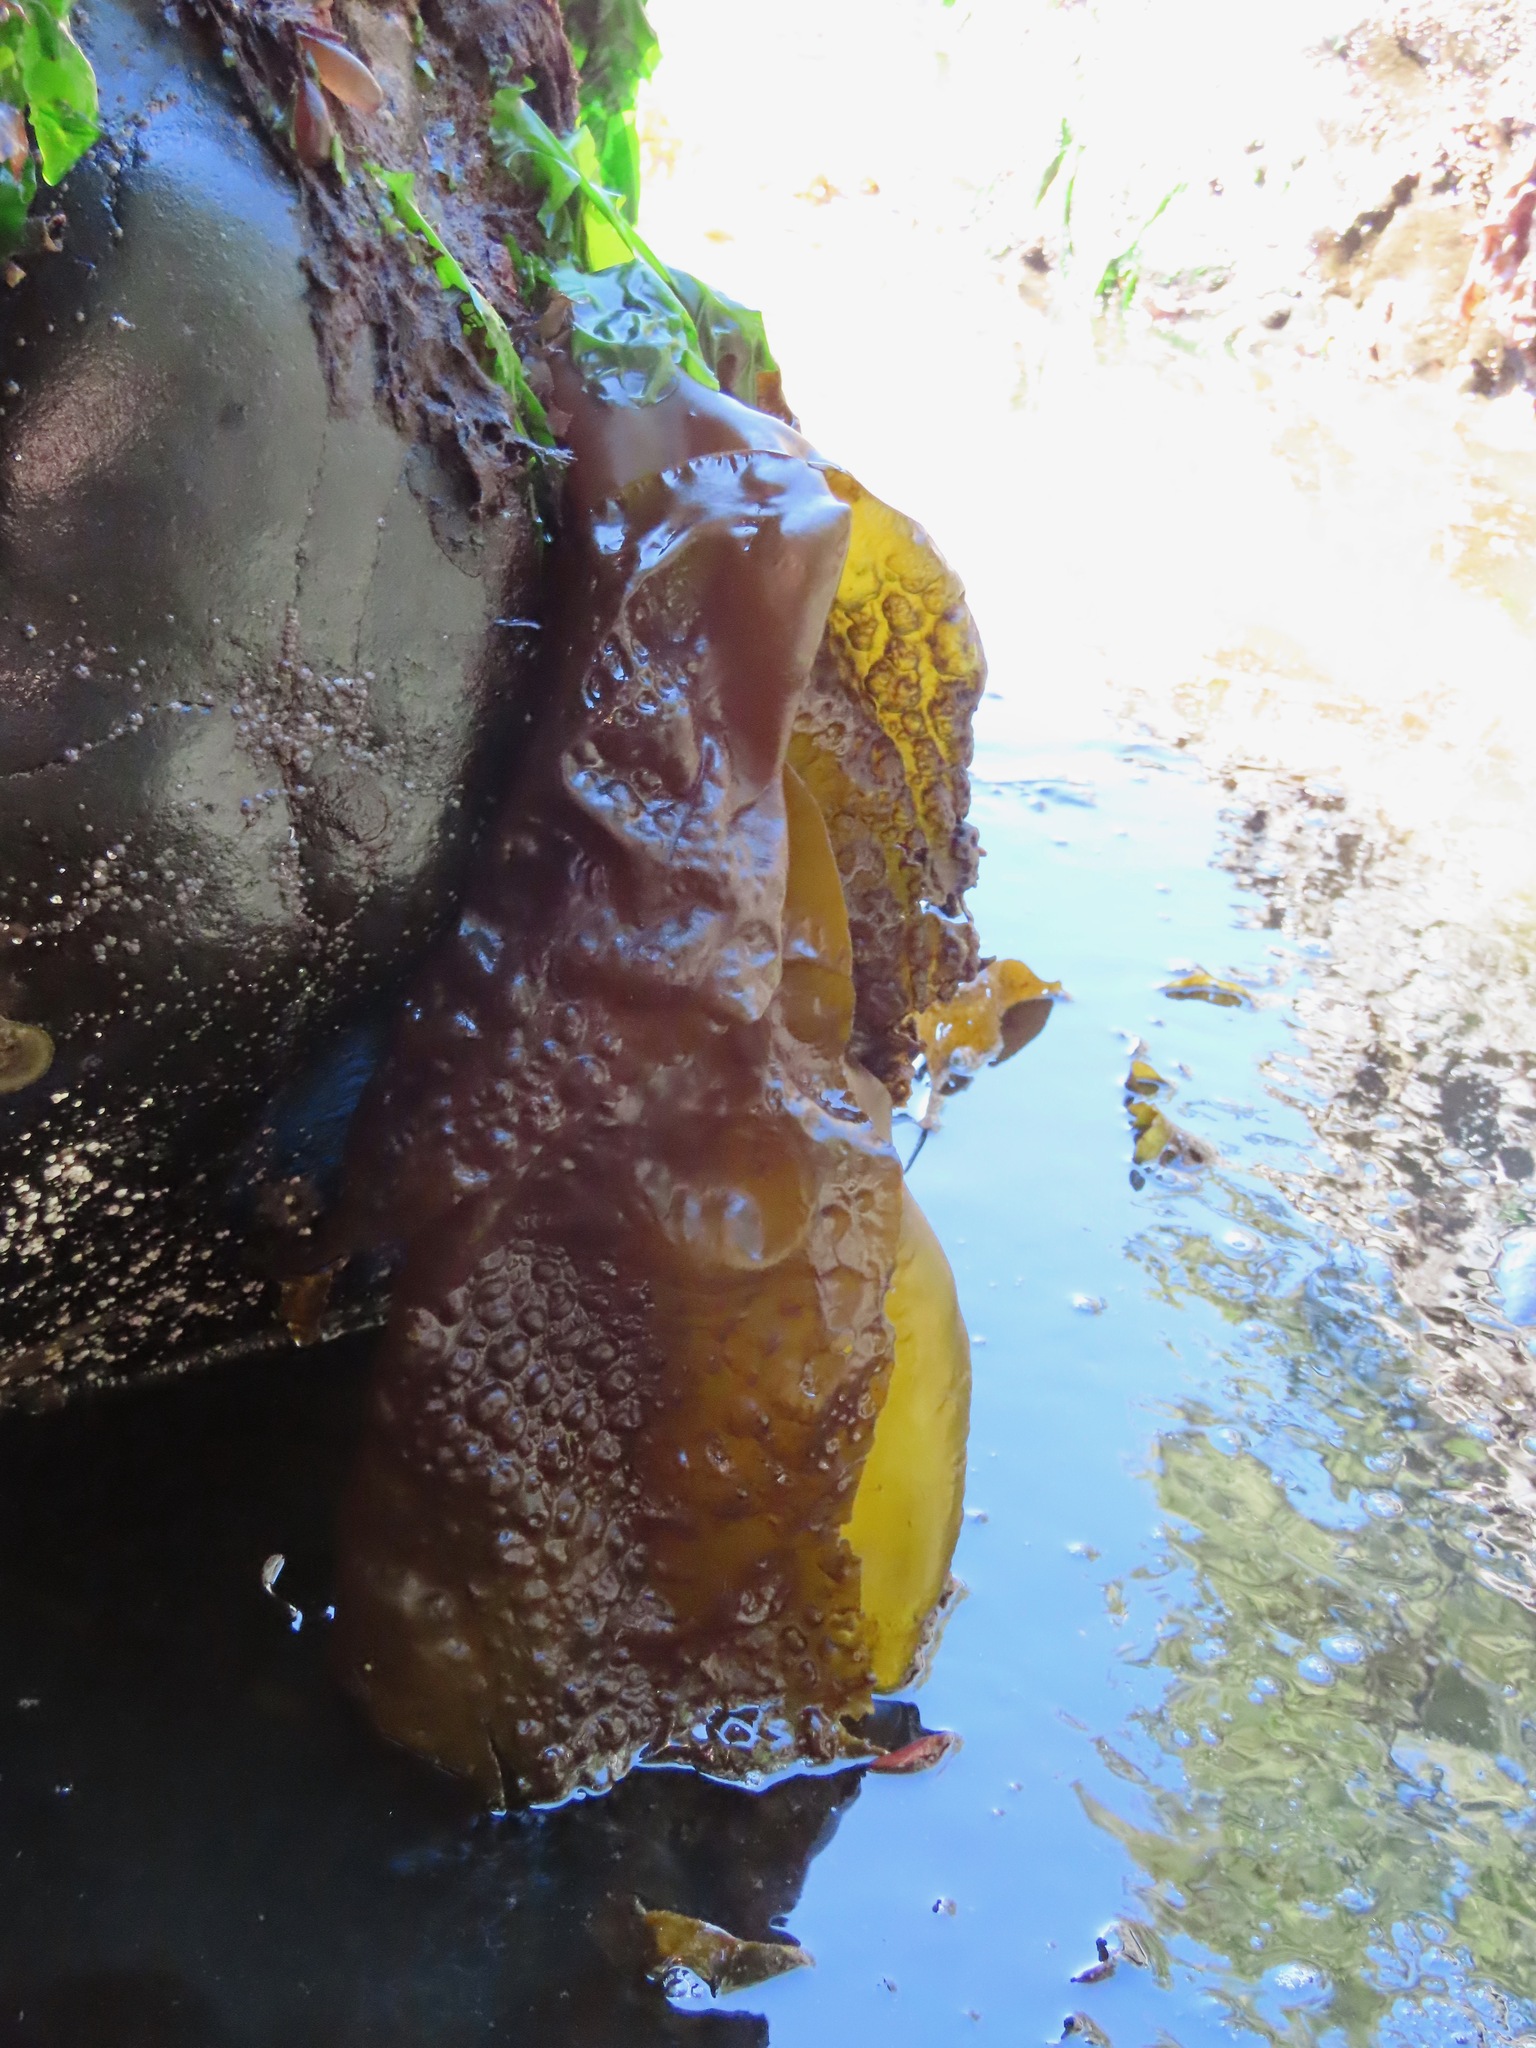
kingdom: Chromista
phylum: Ochrophyta
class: Phaeophyceae
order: Laminariales
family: Laminariaceae
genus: Hedophyllum
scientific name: Hedophyllum sessile
